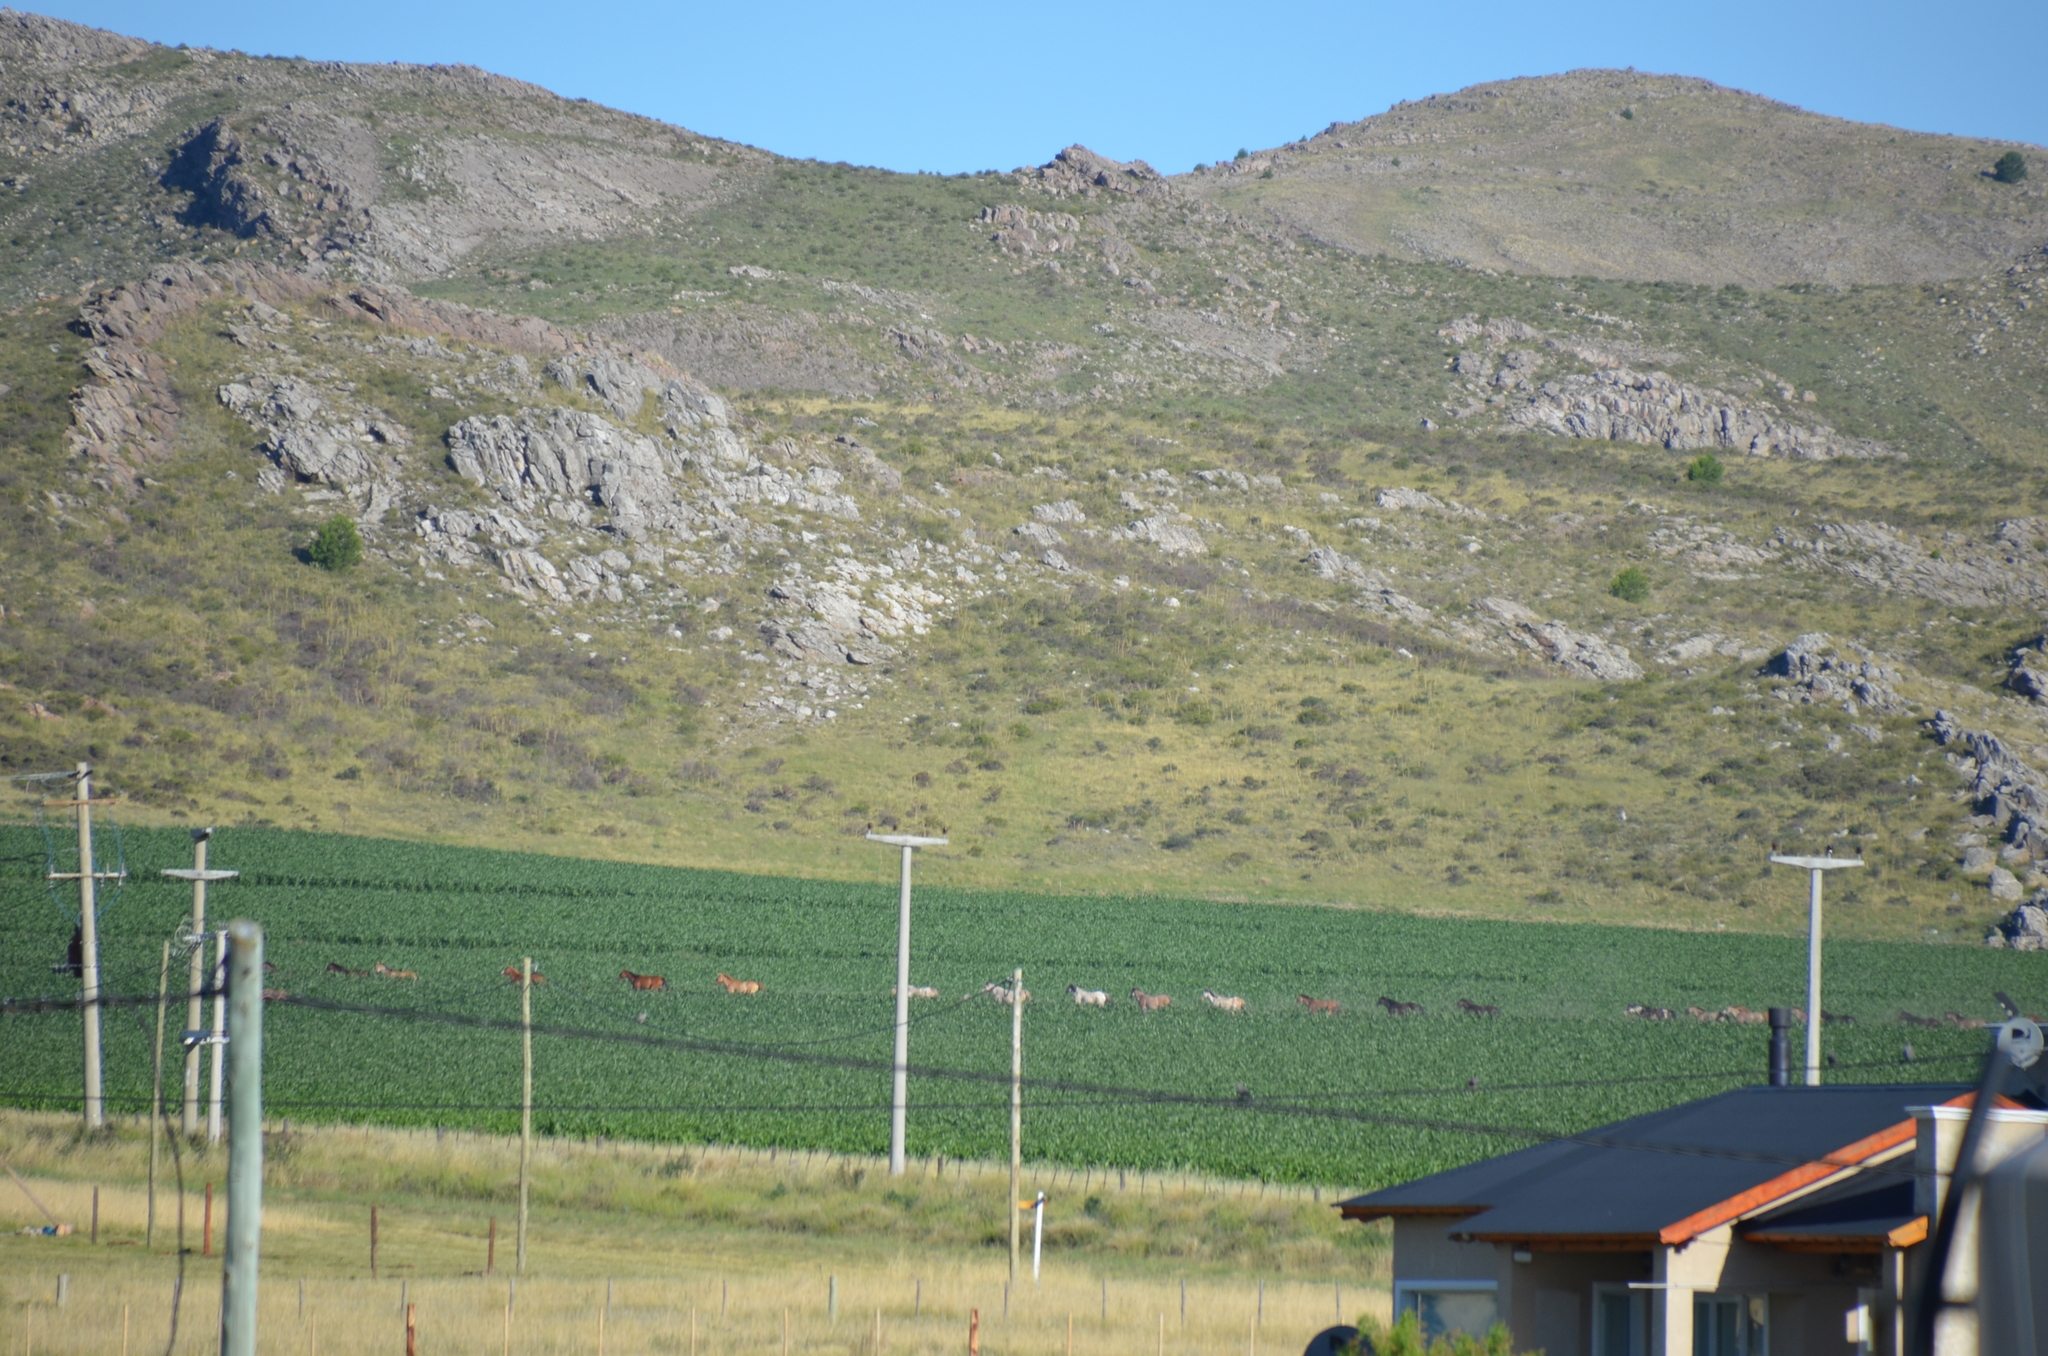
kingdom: Animalia
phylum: Chordata
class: Mammalia
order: Perissodactyla
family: Equidae
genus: Equus
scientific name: Equus caballus
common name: Horse
